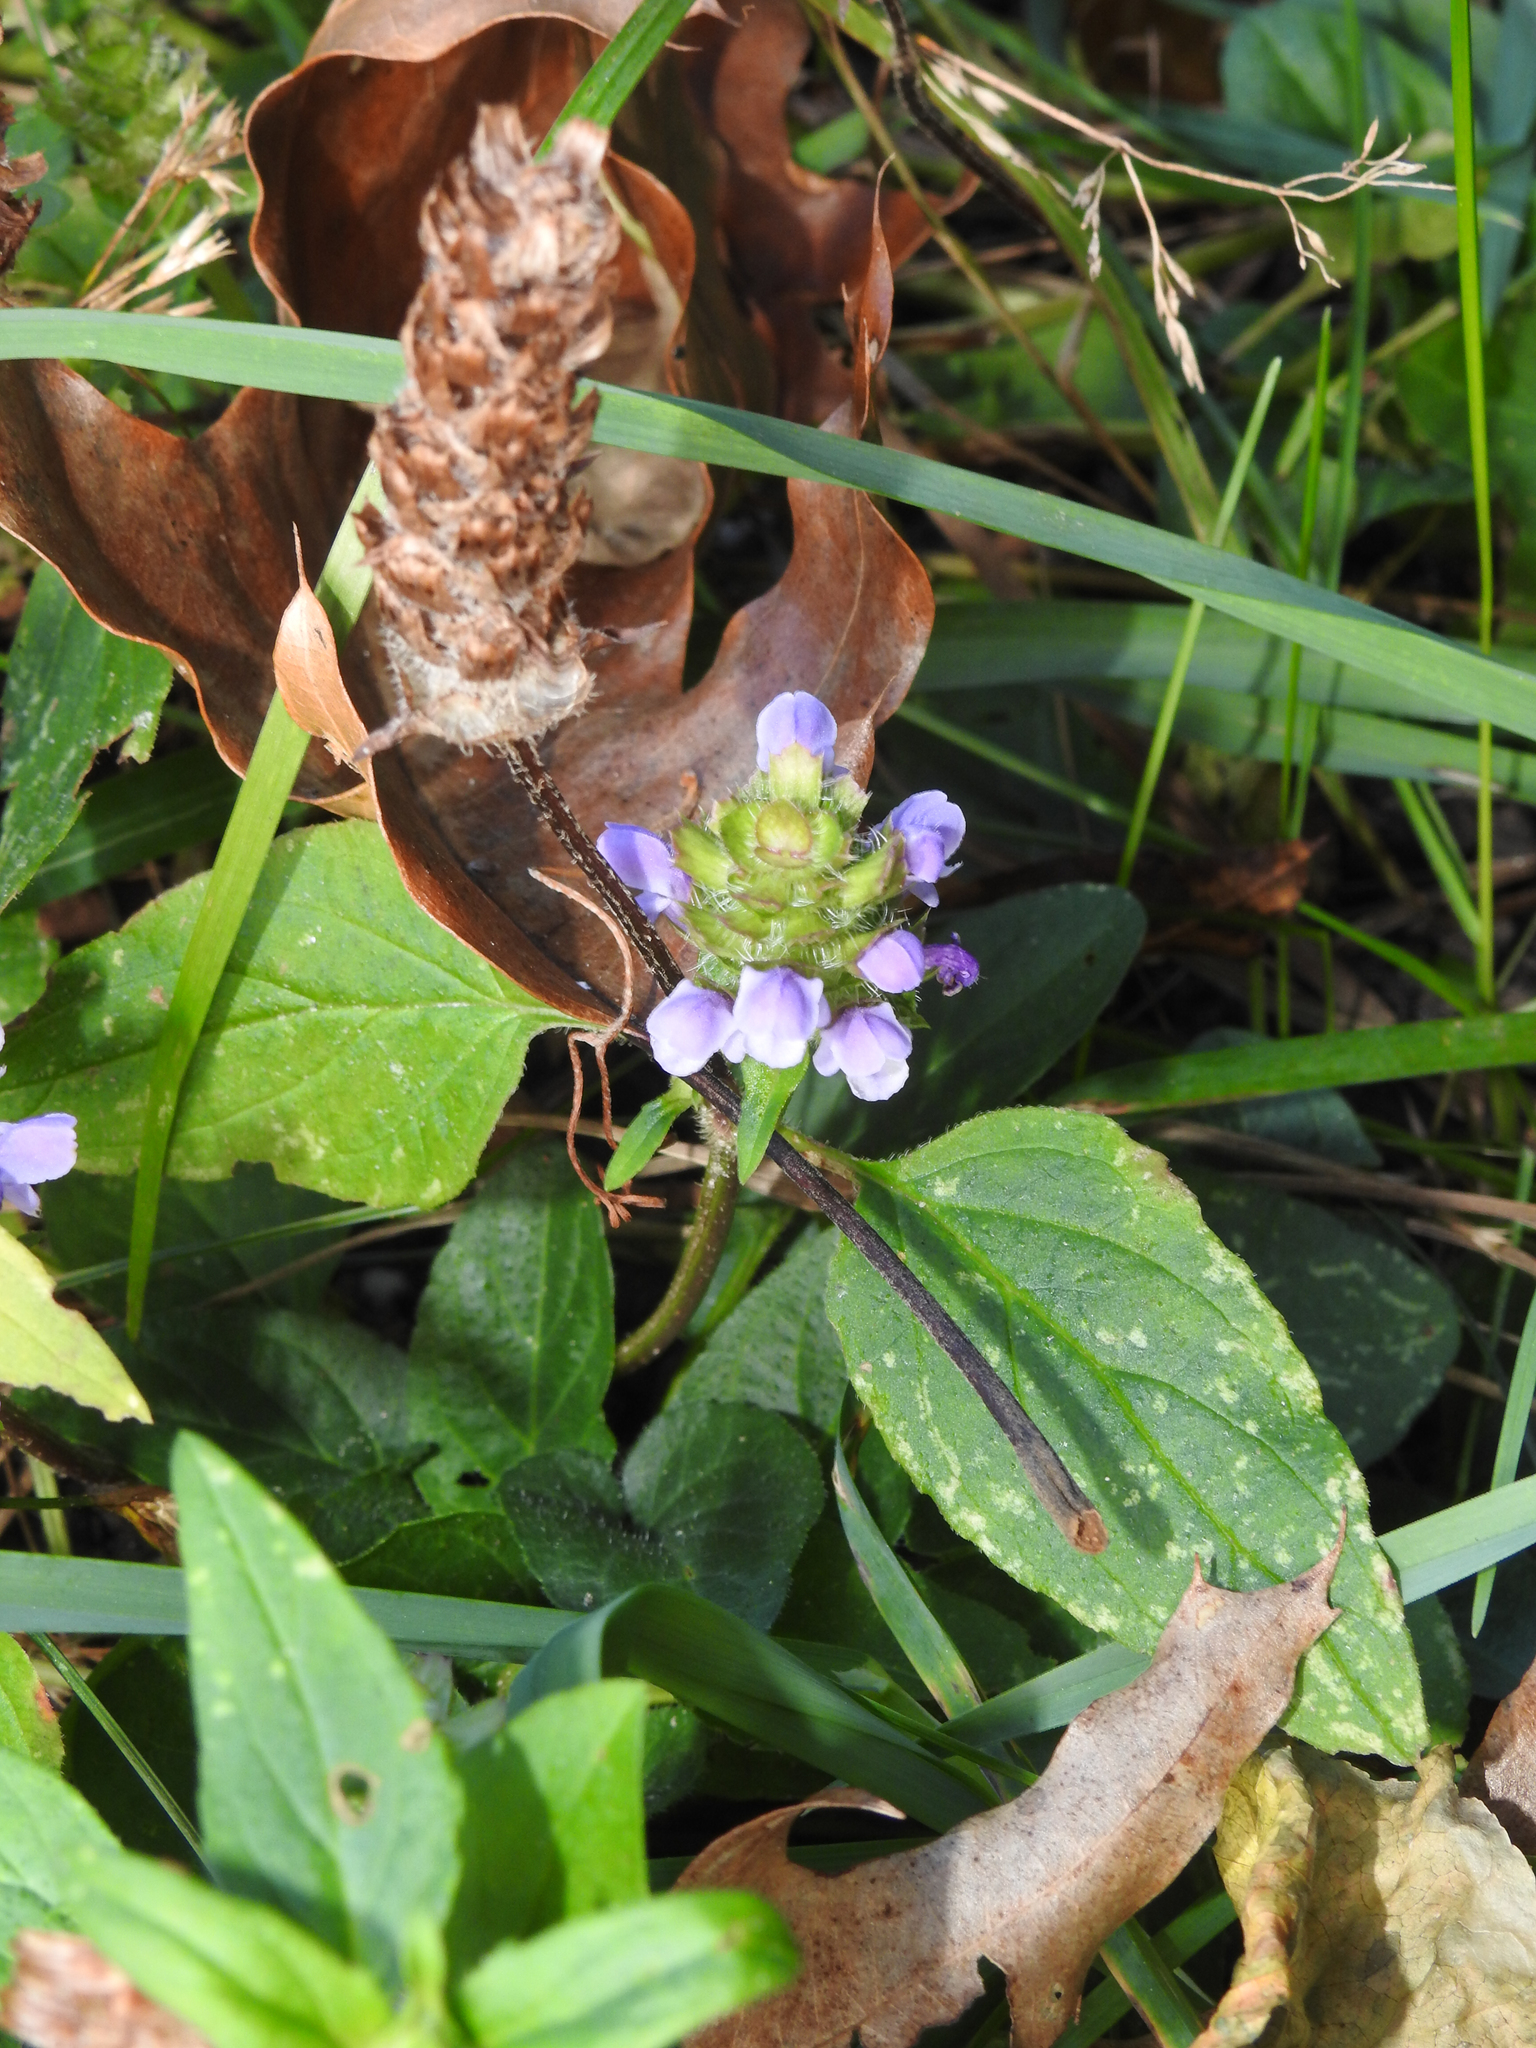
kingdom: Plantae
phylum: Tracheophyta
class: Magnoliopsida
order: Lamiales
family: Lamiaceae
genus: Prunella
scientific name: Prunella vulgaris
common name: Heal-all
